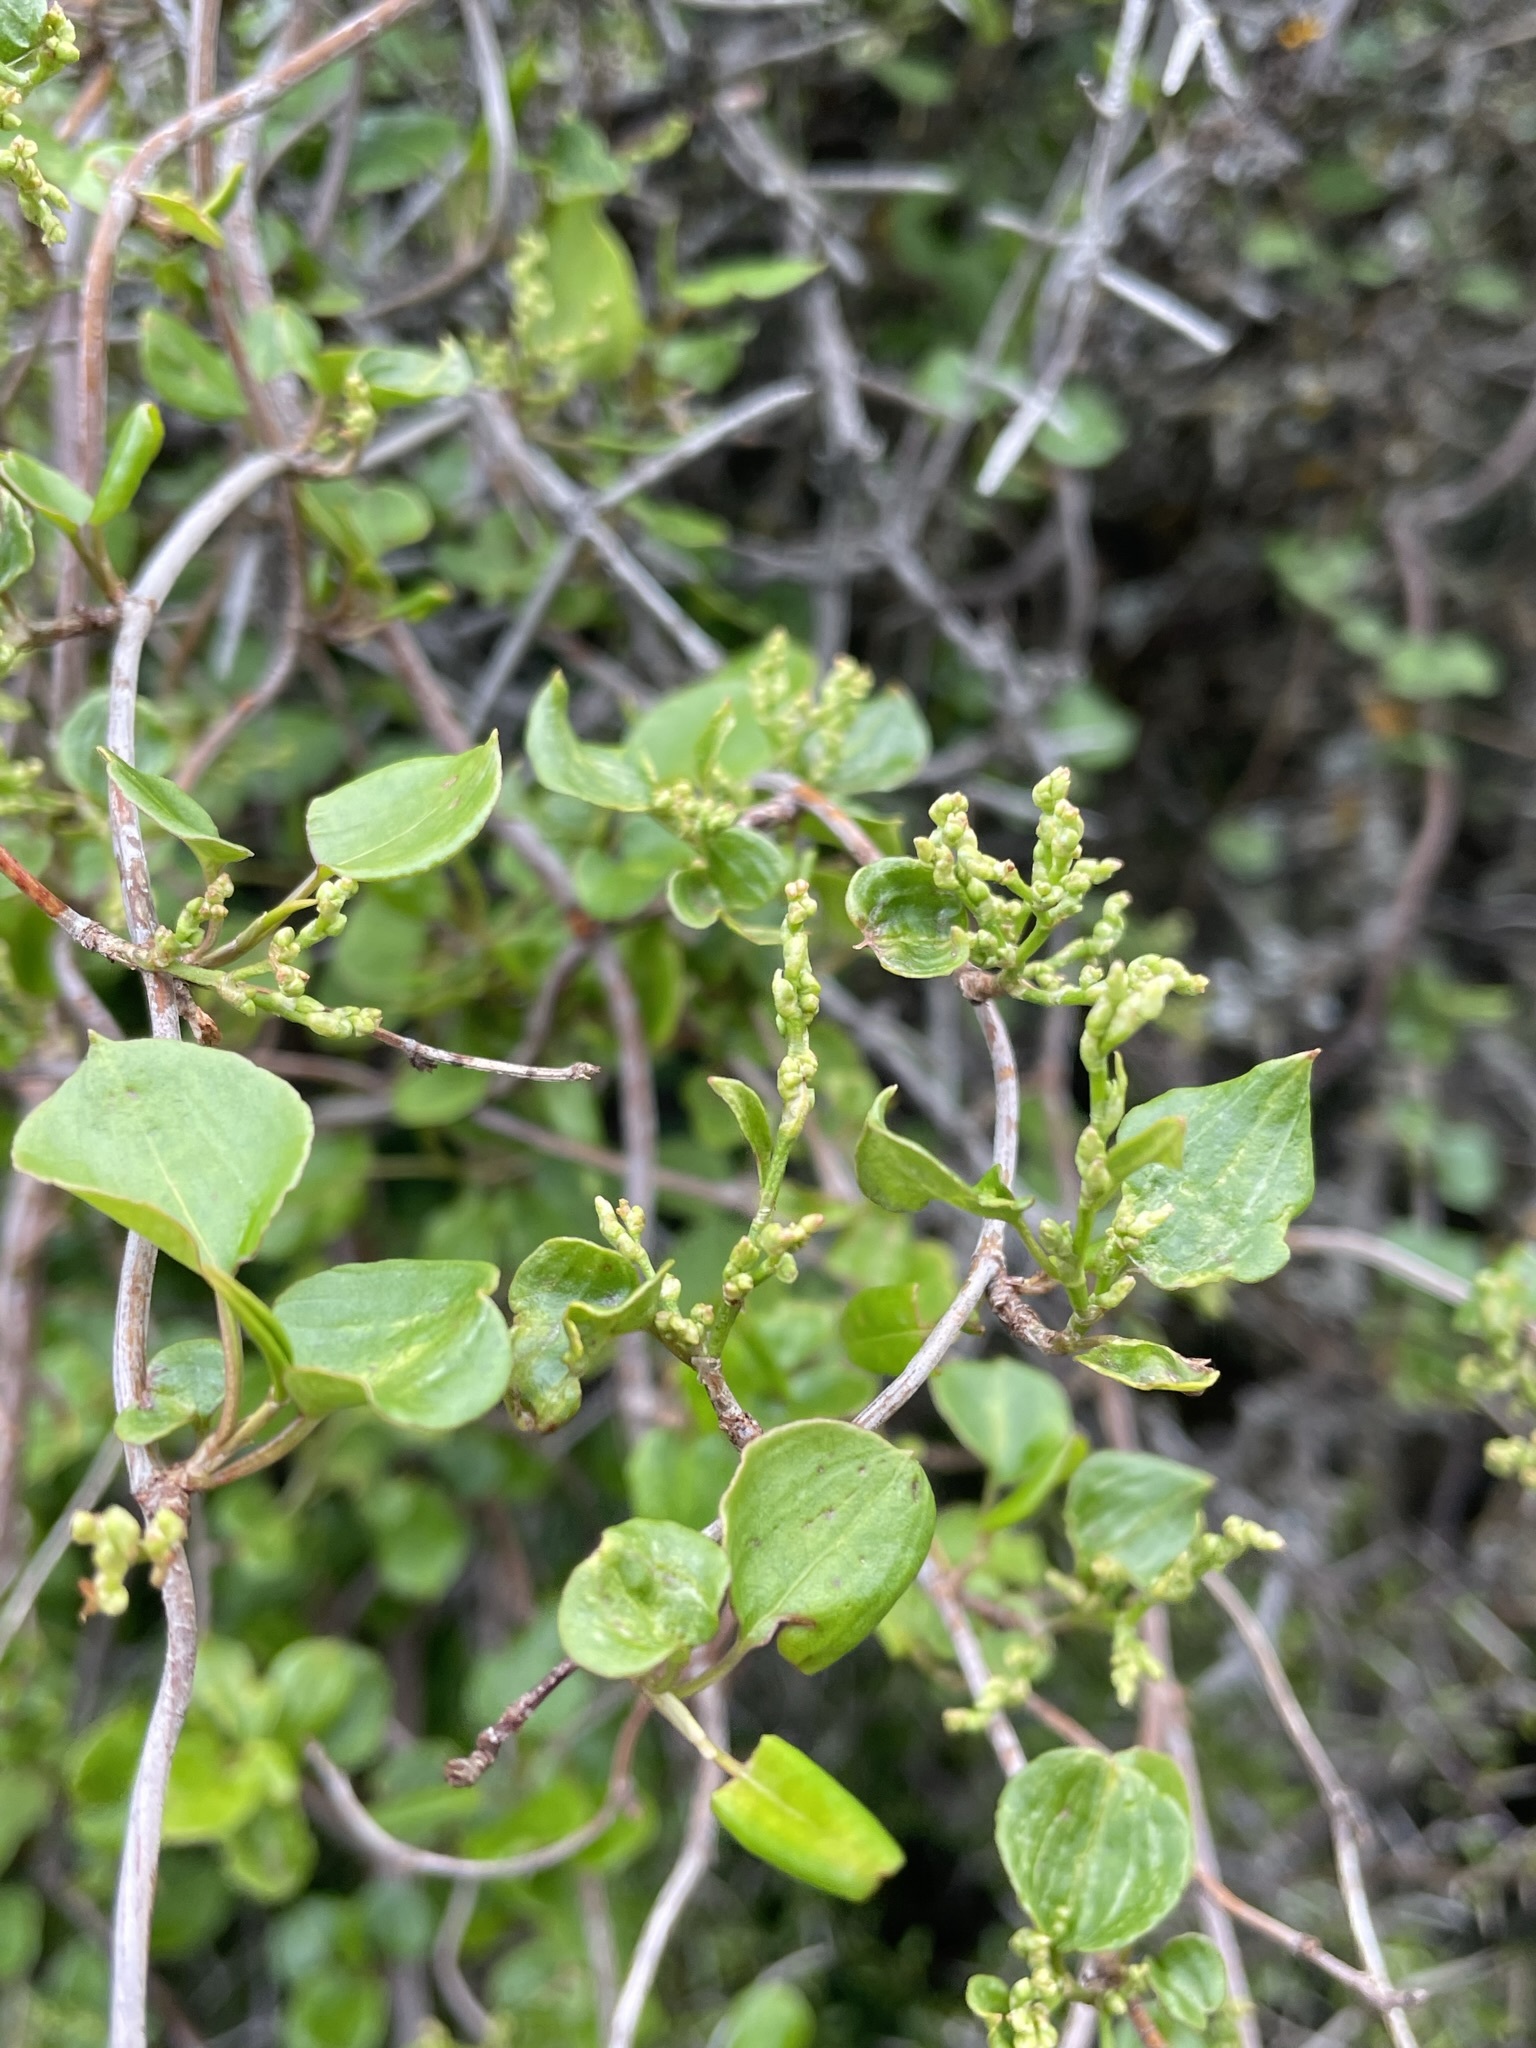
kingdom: Plantae
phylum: Tracheophyta
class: Magnoliopsida
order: Caryophyllales
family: Polygonaceae
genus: Muehlenbeckia
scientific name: Muehlenbeckia australis
